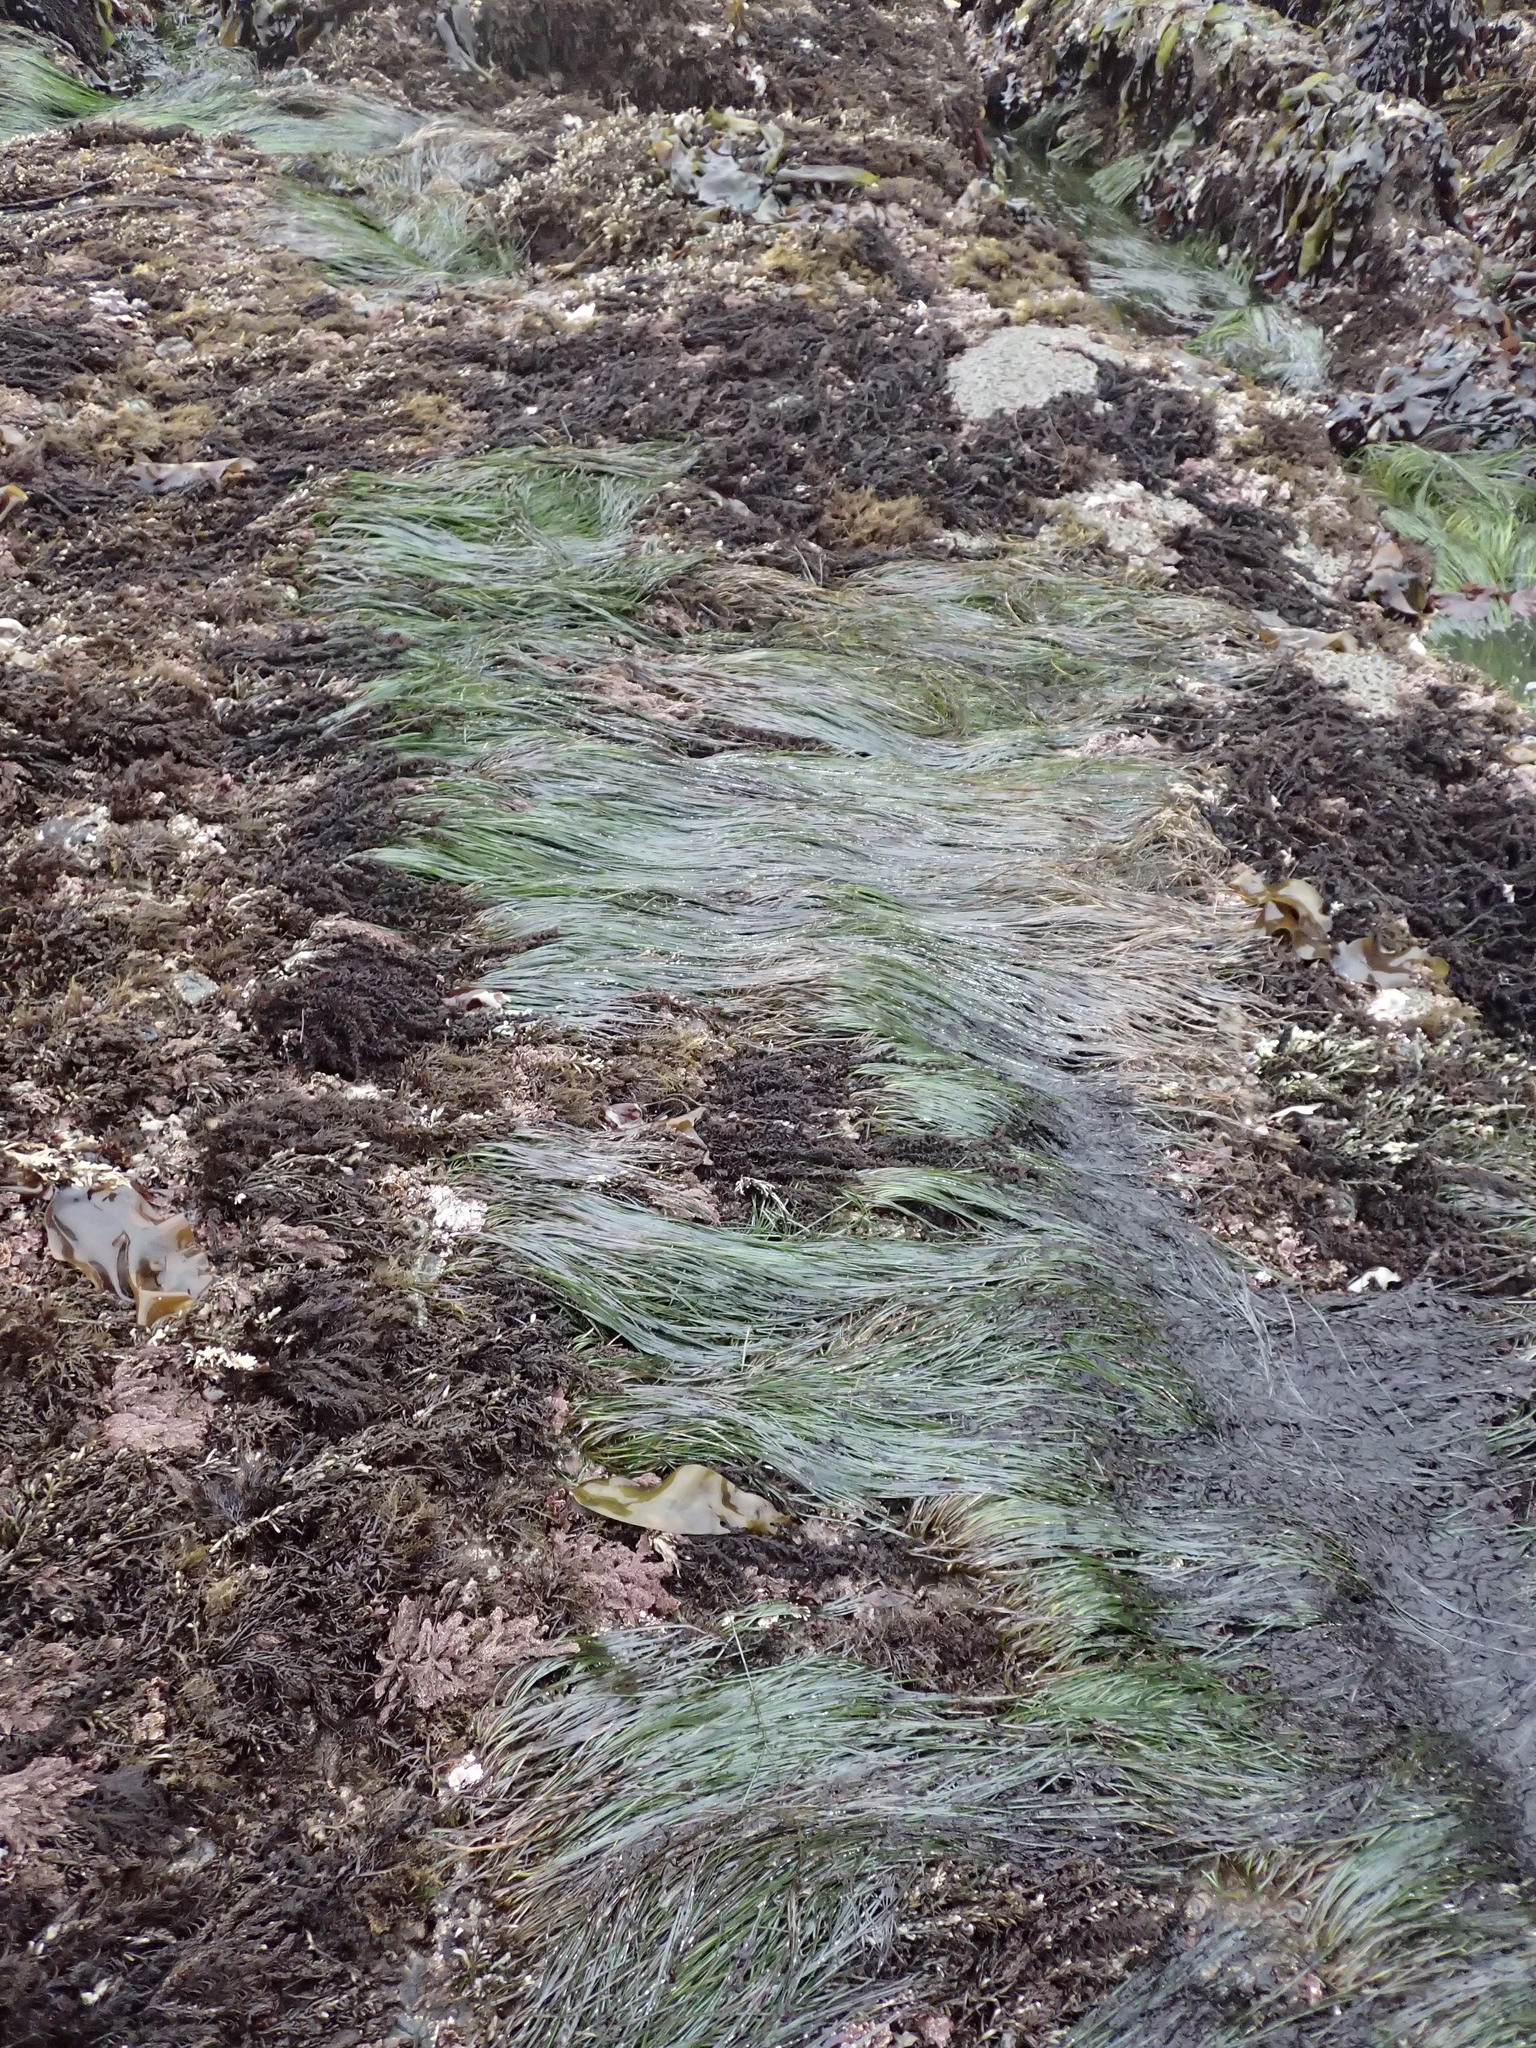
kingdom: Plantae
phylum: Tracheophyta
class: Liliopsida
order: Alismatales
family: Zosteraceae
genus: Phyllospadix
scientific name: Phyllospadix torreyi
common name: Surfgrass
